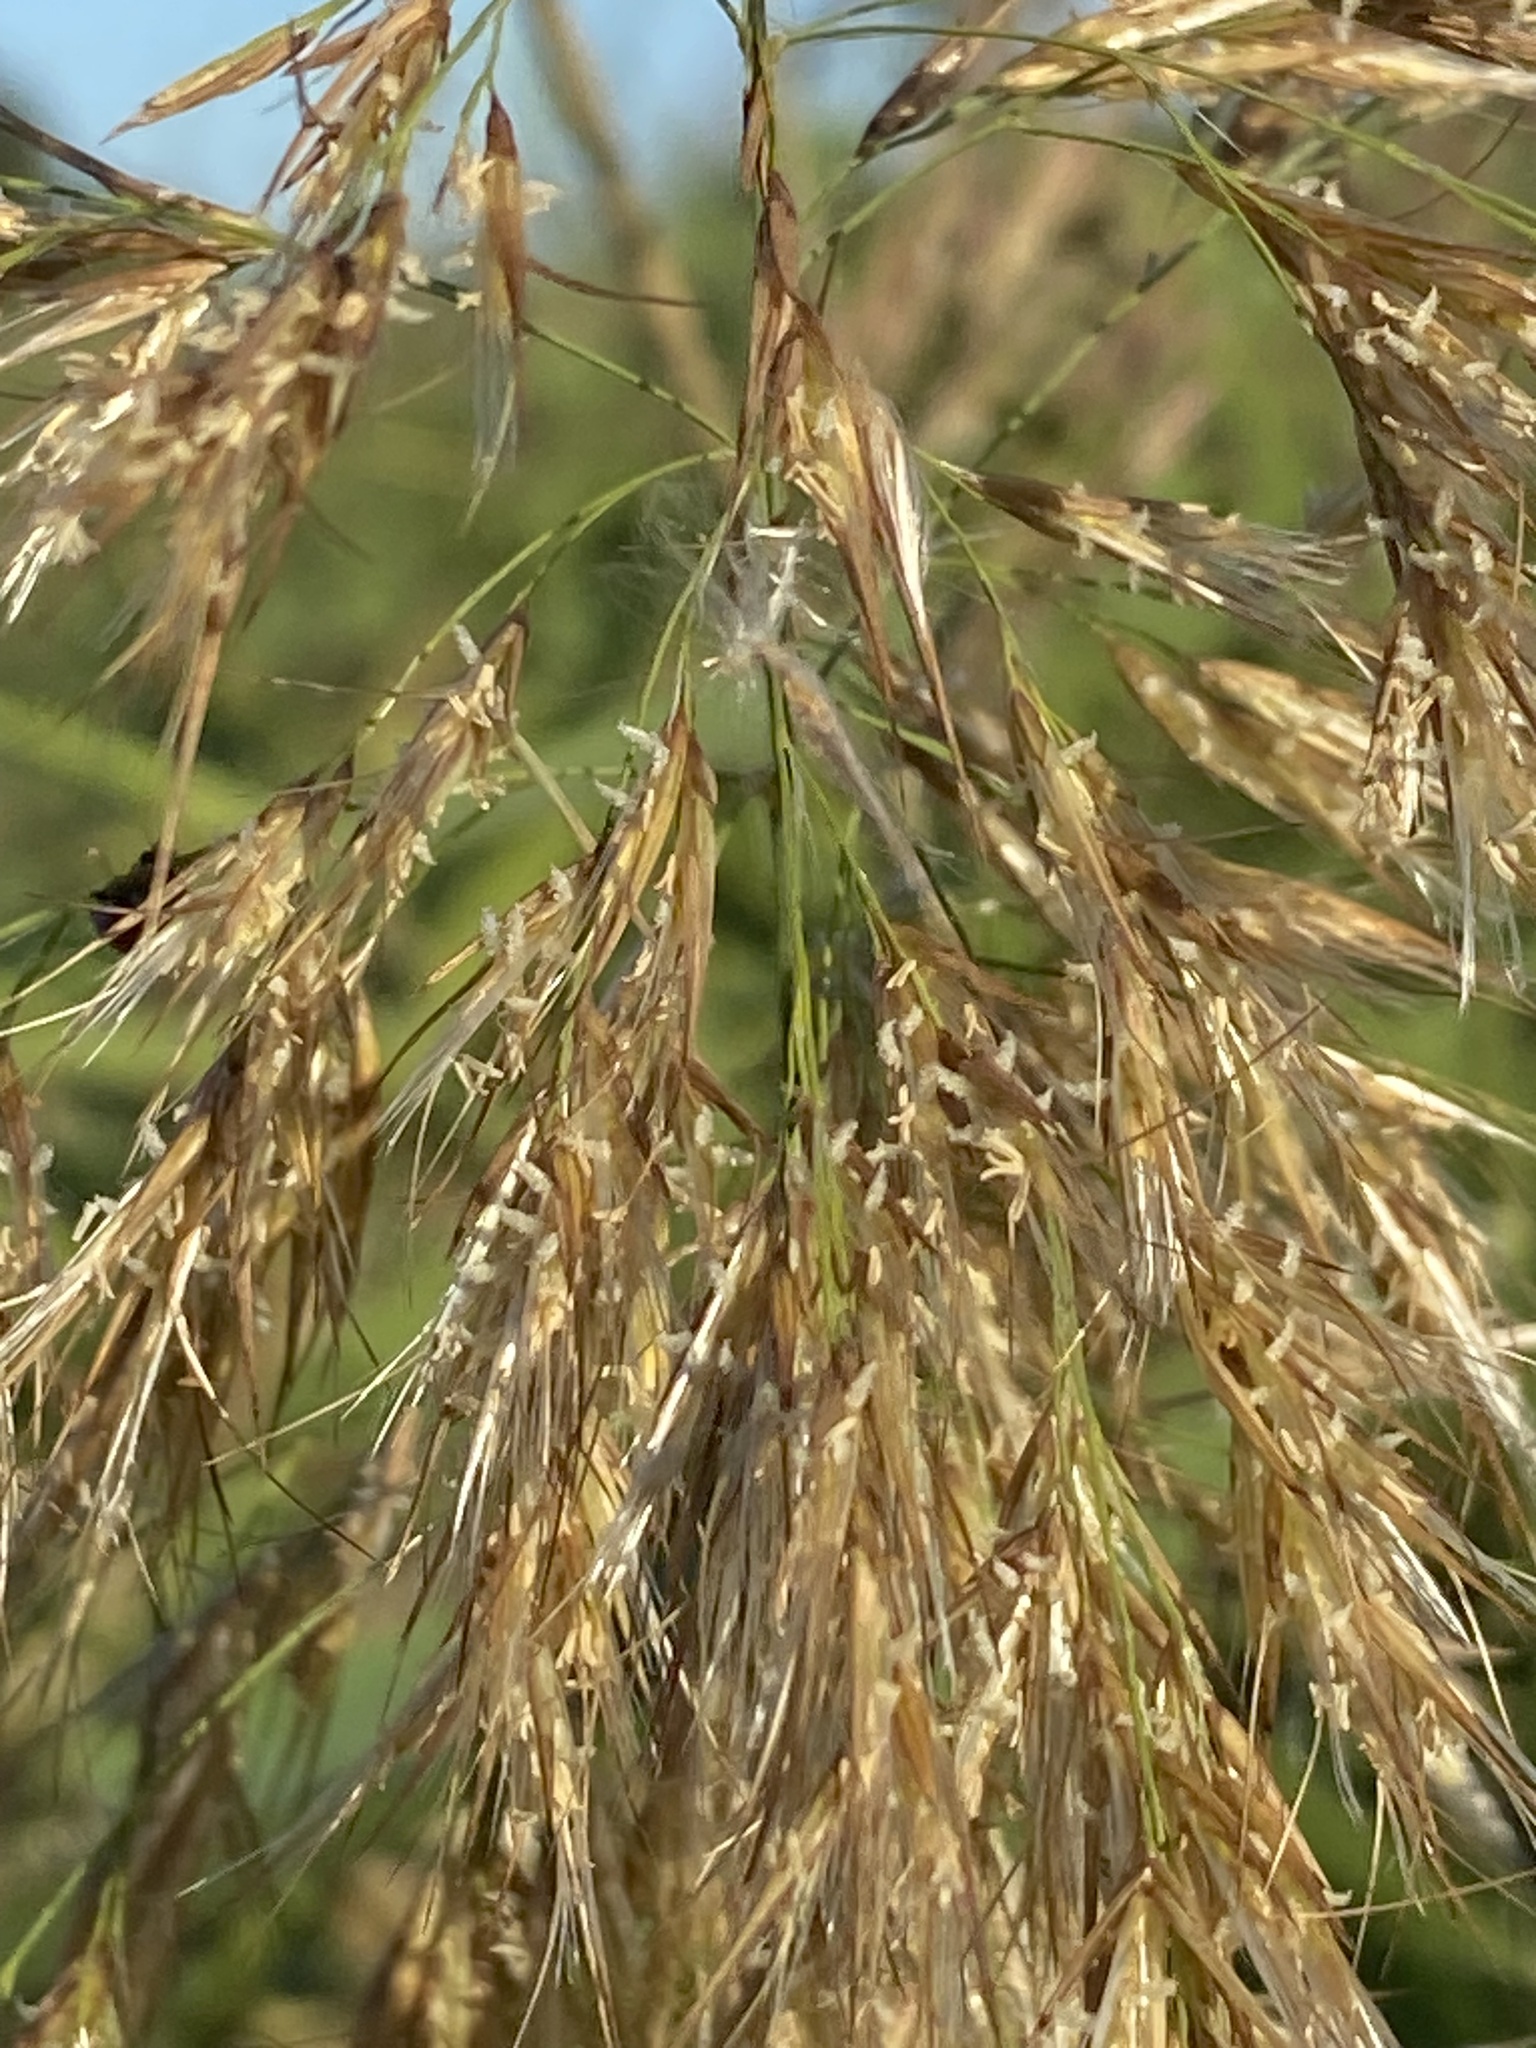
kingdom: Plantae
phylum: Tracheophyta
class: Liliopsida
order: Poales
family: Poaceae
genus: Phragmites
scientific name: Phragmites australis
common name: Common reed
